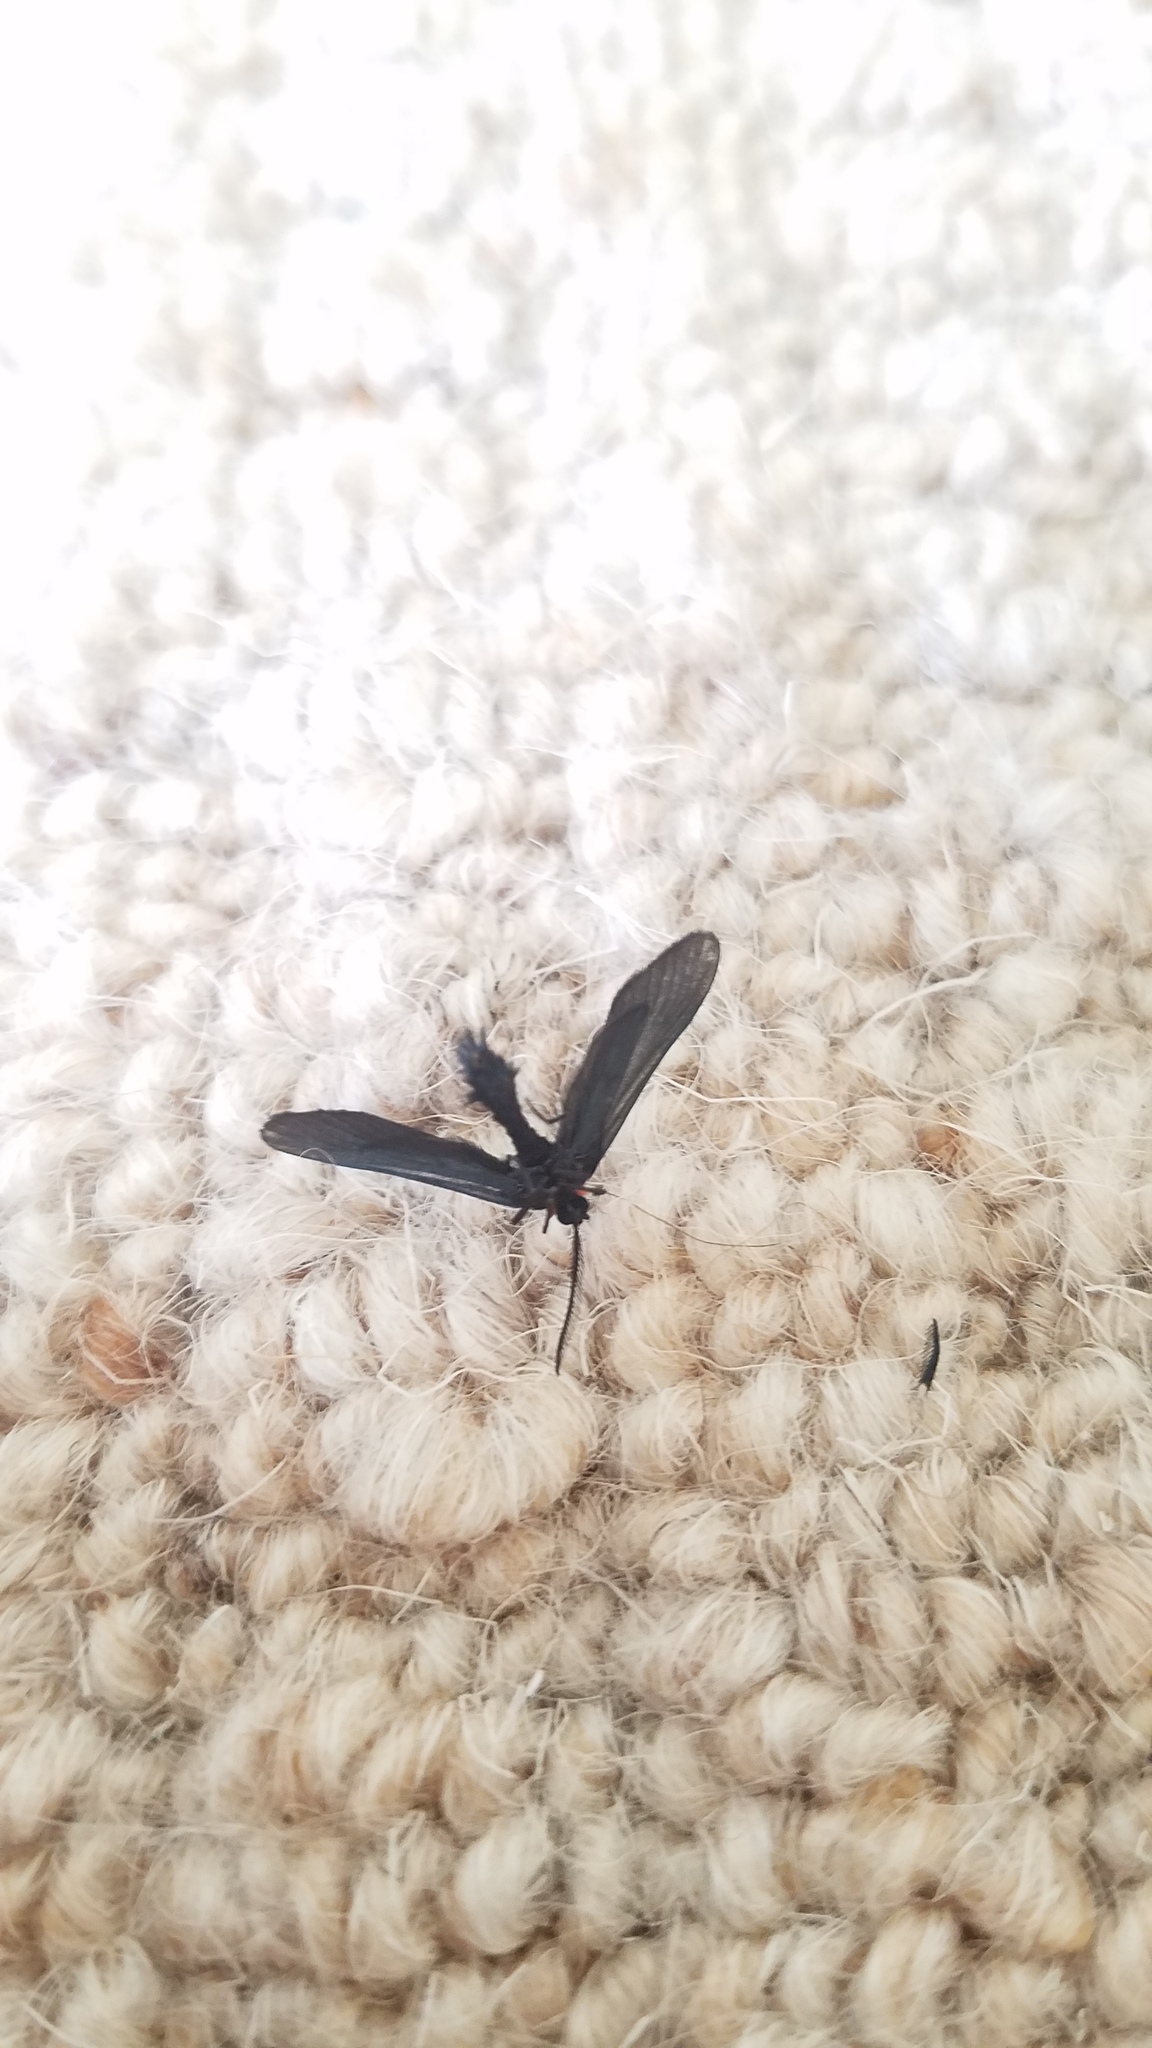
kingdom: Animalia
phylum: Arthropoda
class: Insecta
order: Lepidoptera
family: Zygaenidae
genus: Harrisina
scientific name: Harrisina americana
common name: Grapeleaf skeletonizer moth
